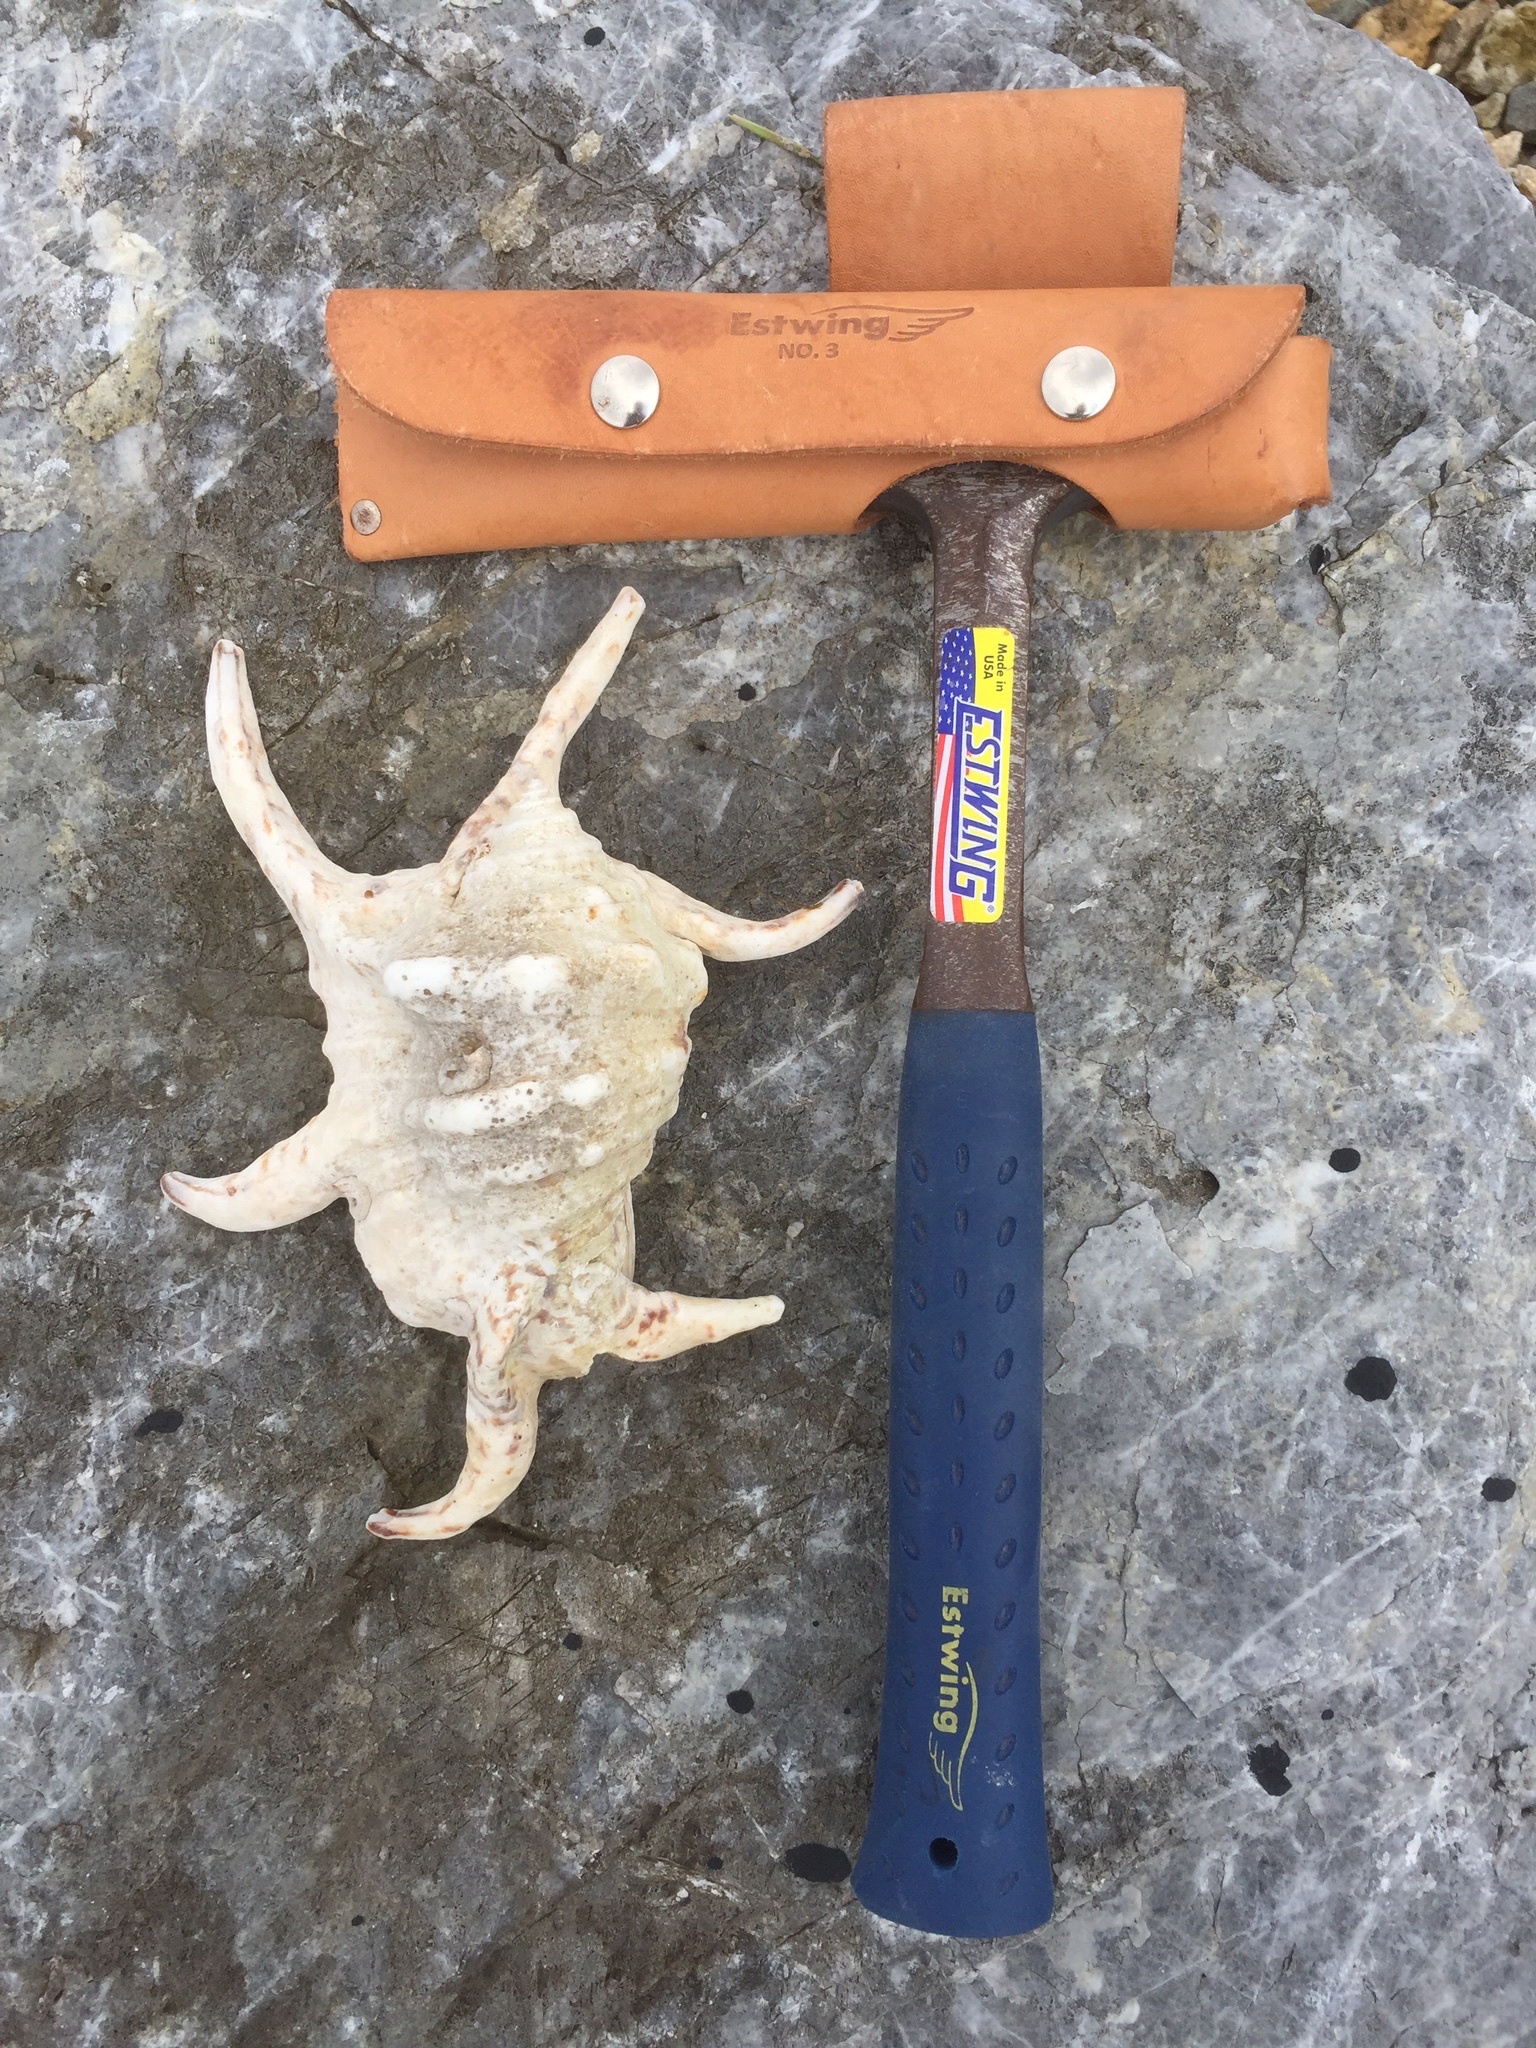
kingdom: Animalia
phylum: Mollusca
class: Gastropoda
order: Littorinimorpha
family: Strombidae
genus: Harpago
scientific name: Harpago chiragra
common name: Chiragra spider conch
